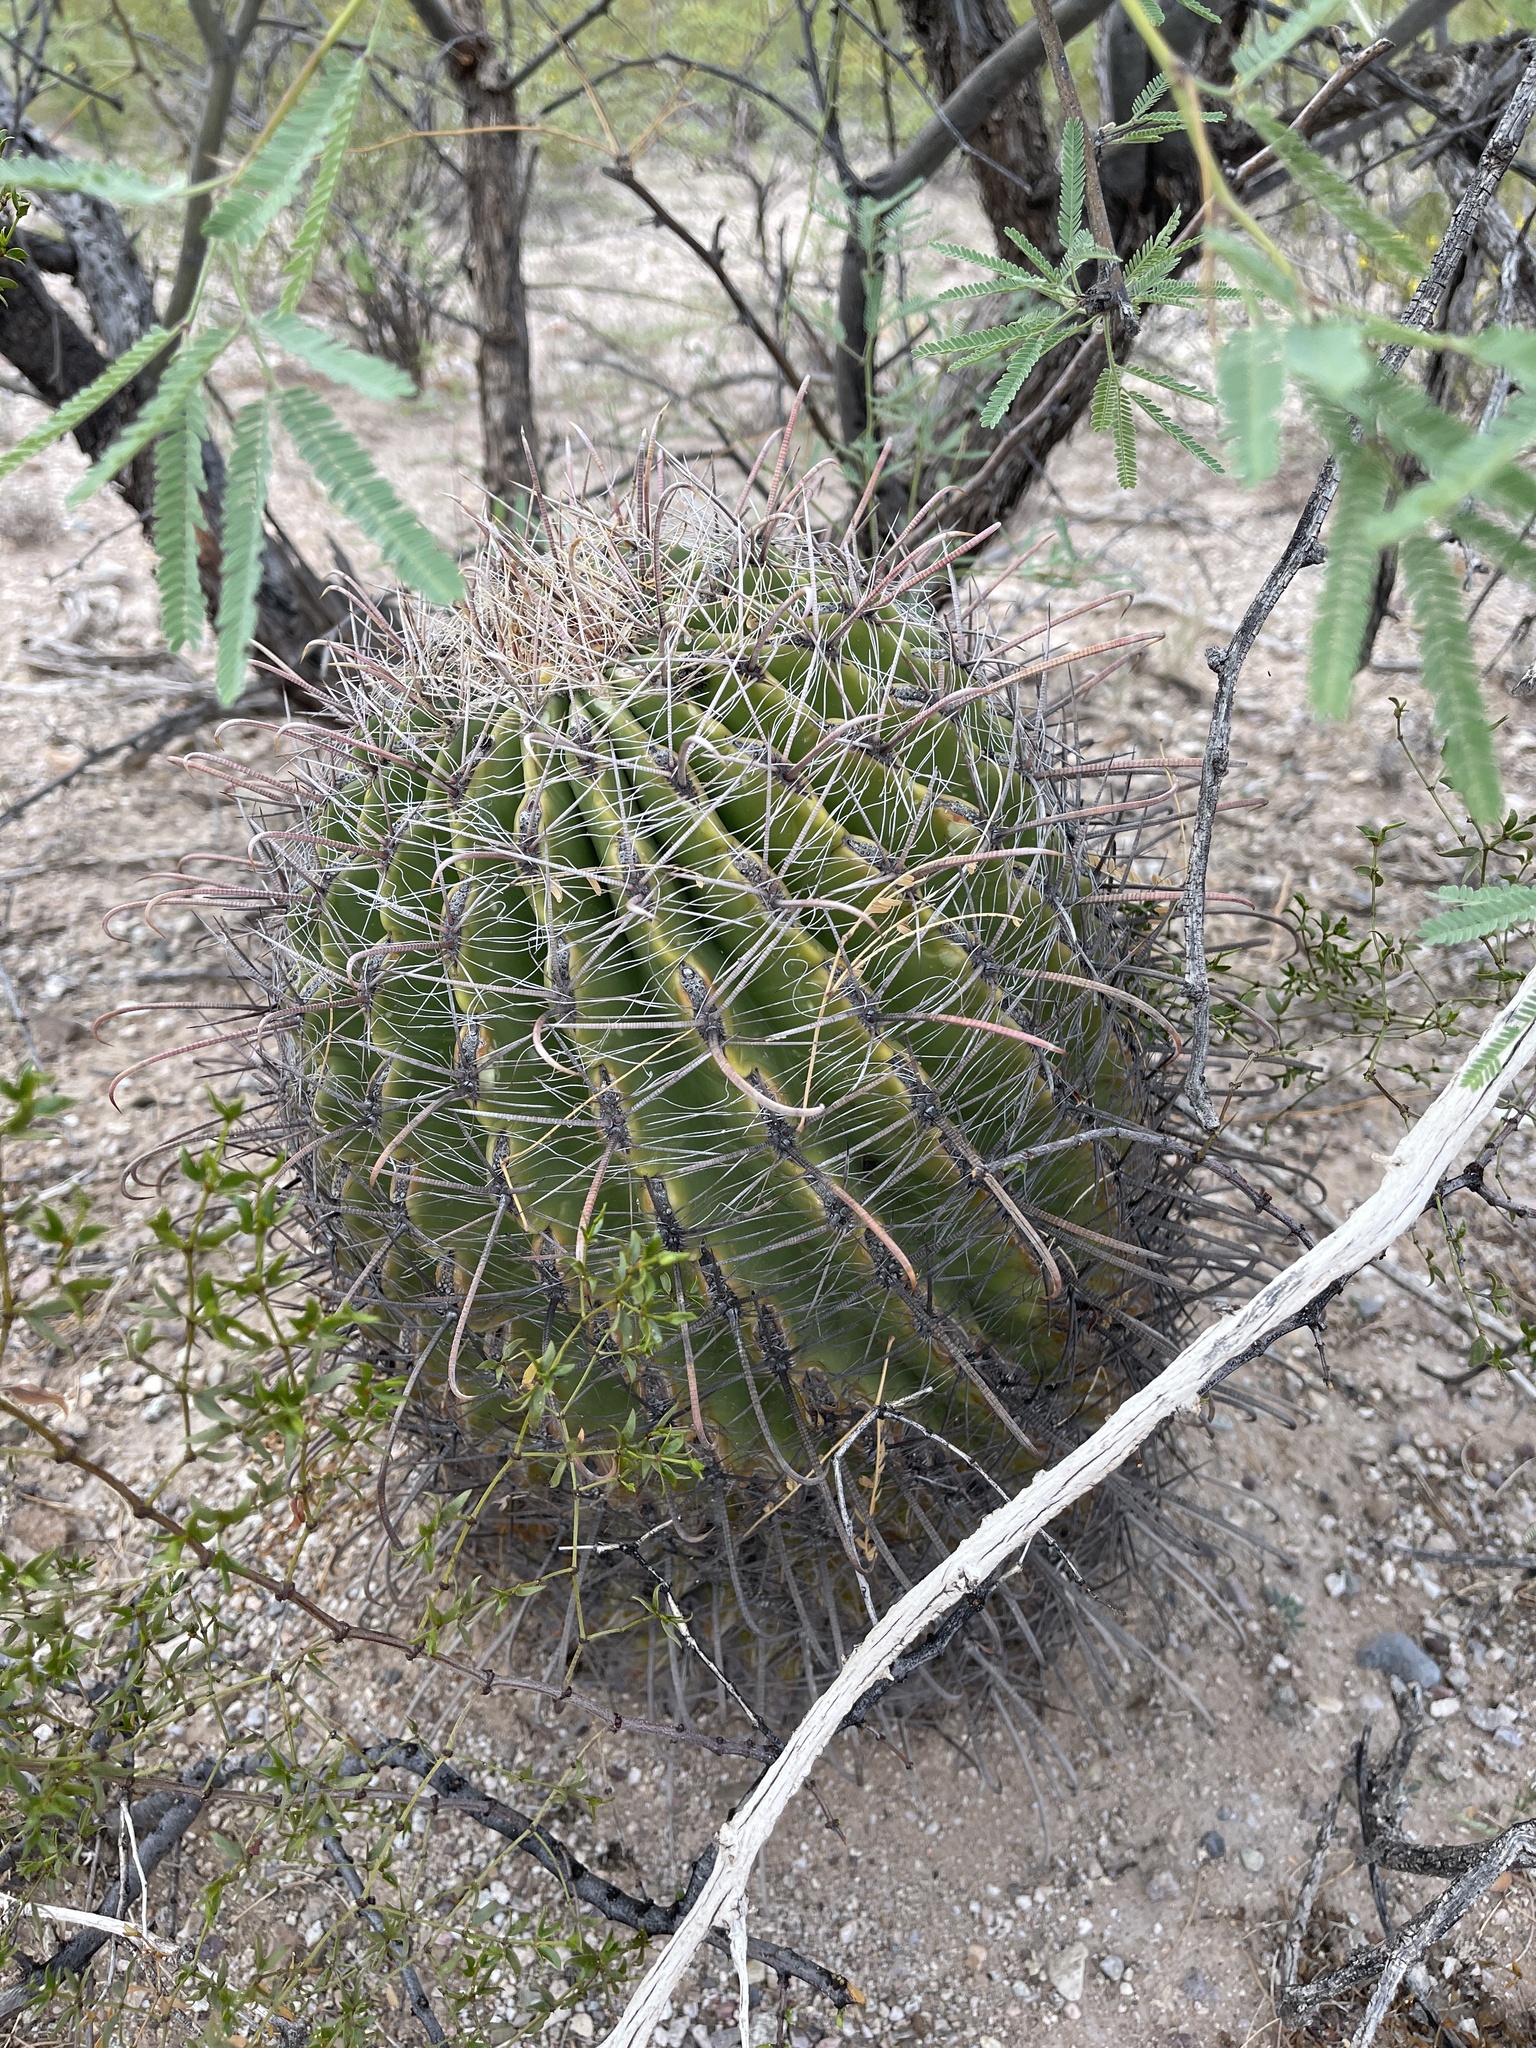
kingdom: Plantae
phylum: Tracheophyta
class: Magnoliopsida
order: Caryophyllales
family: Cactaceae
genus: Ferocactus
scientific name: Ferocactus wislizeni
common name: Candy barrel cactus
